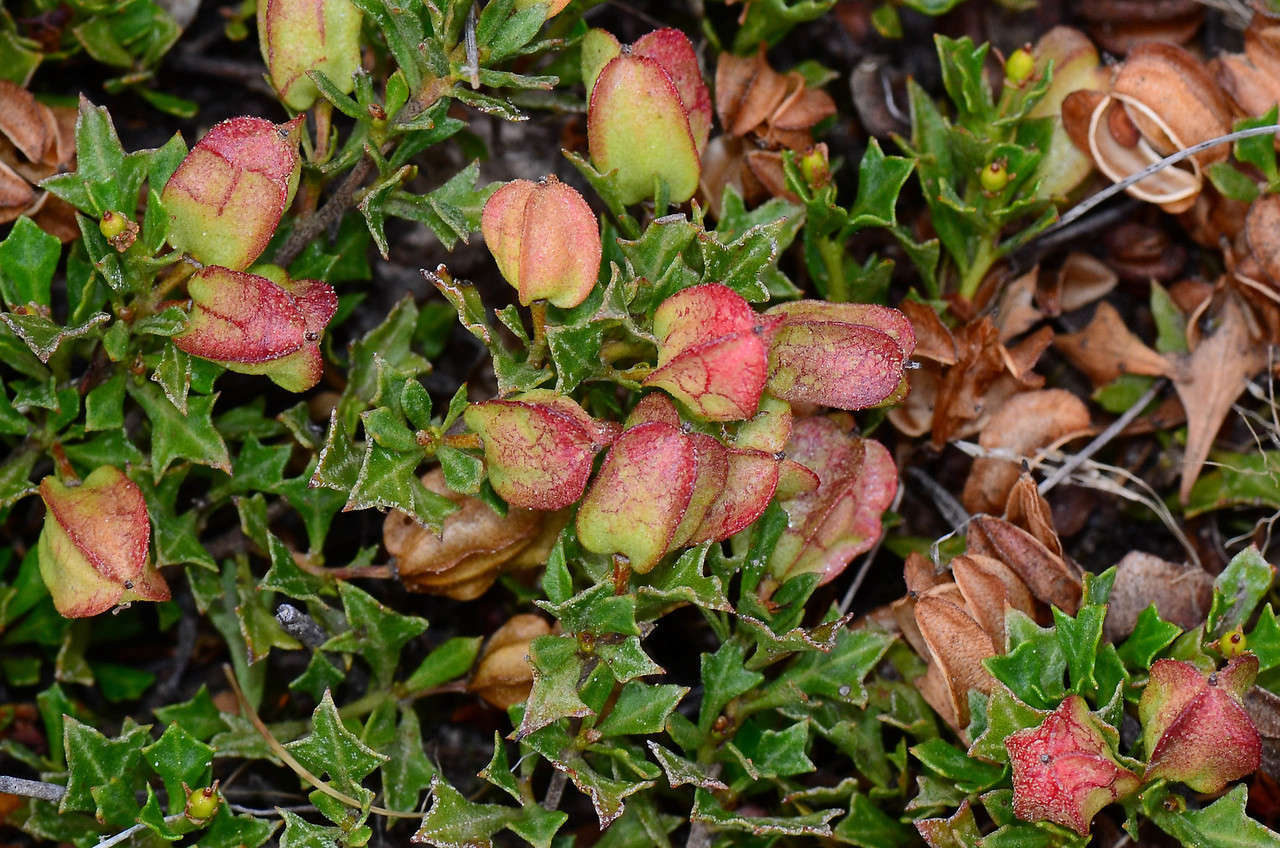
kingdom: Plantae
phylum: Tracheophyta
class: Magnoliopsida
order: Sapindales
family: Sapindaceae
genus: Dodonaea
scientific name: Dodonaea procumbens
